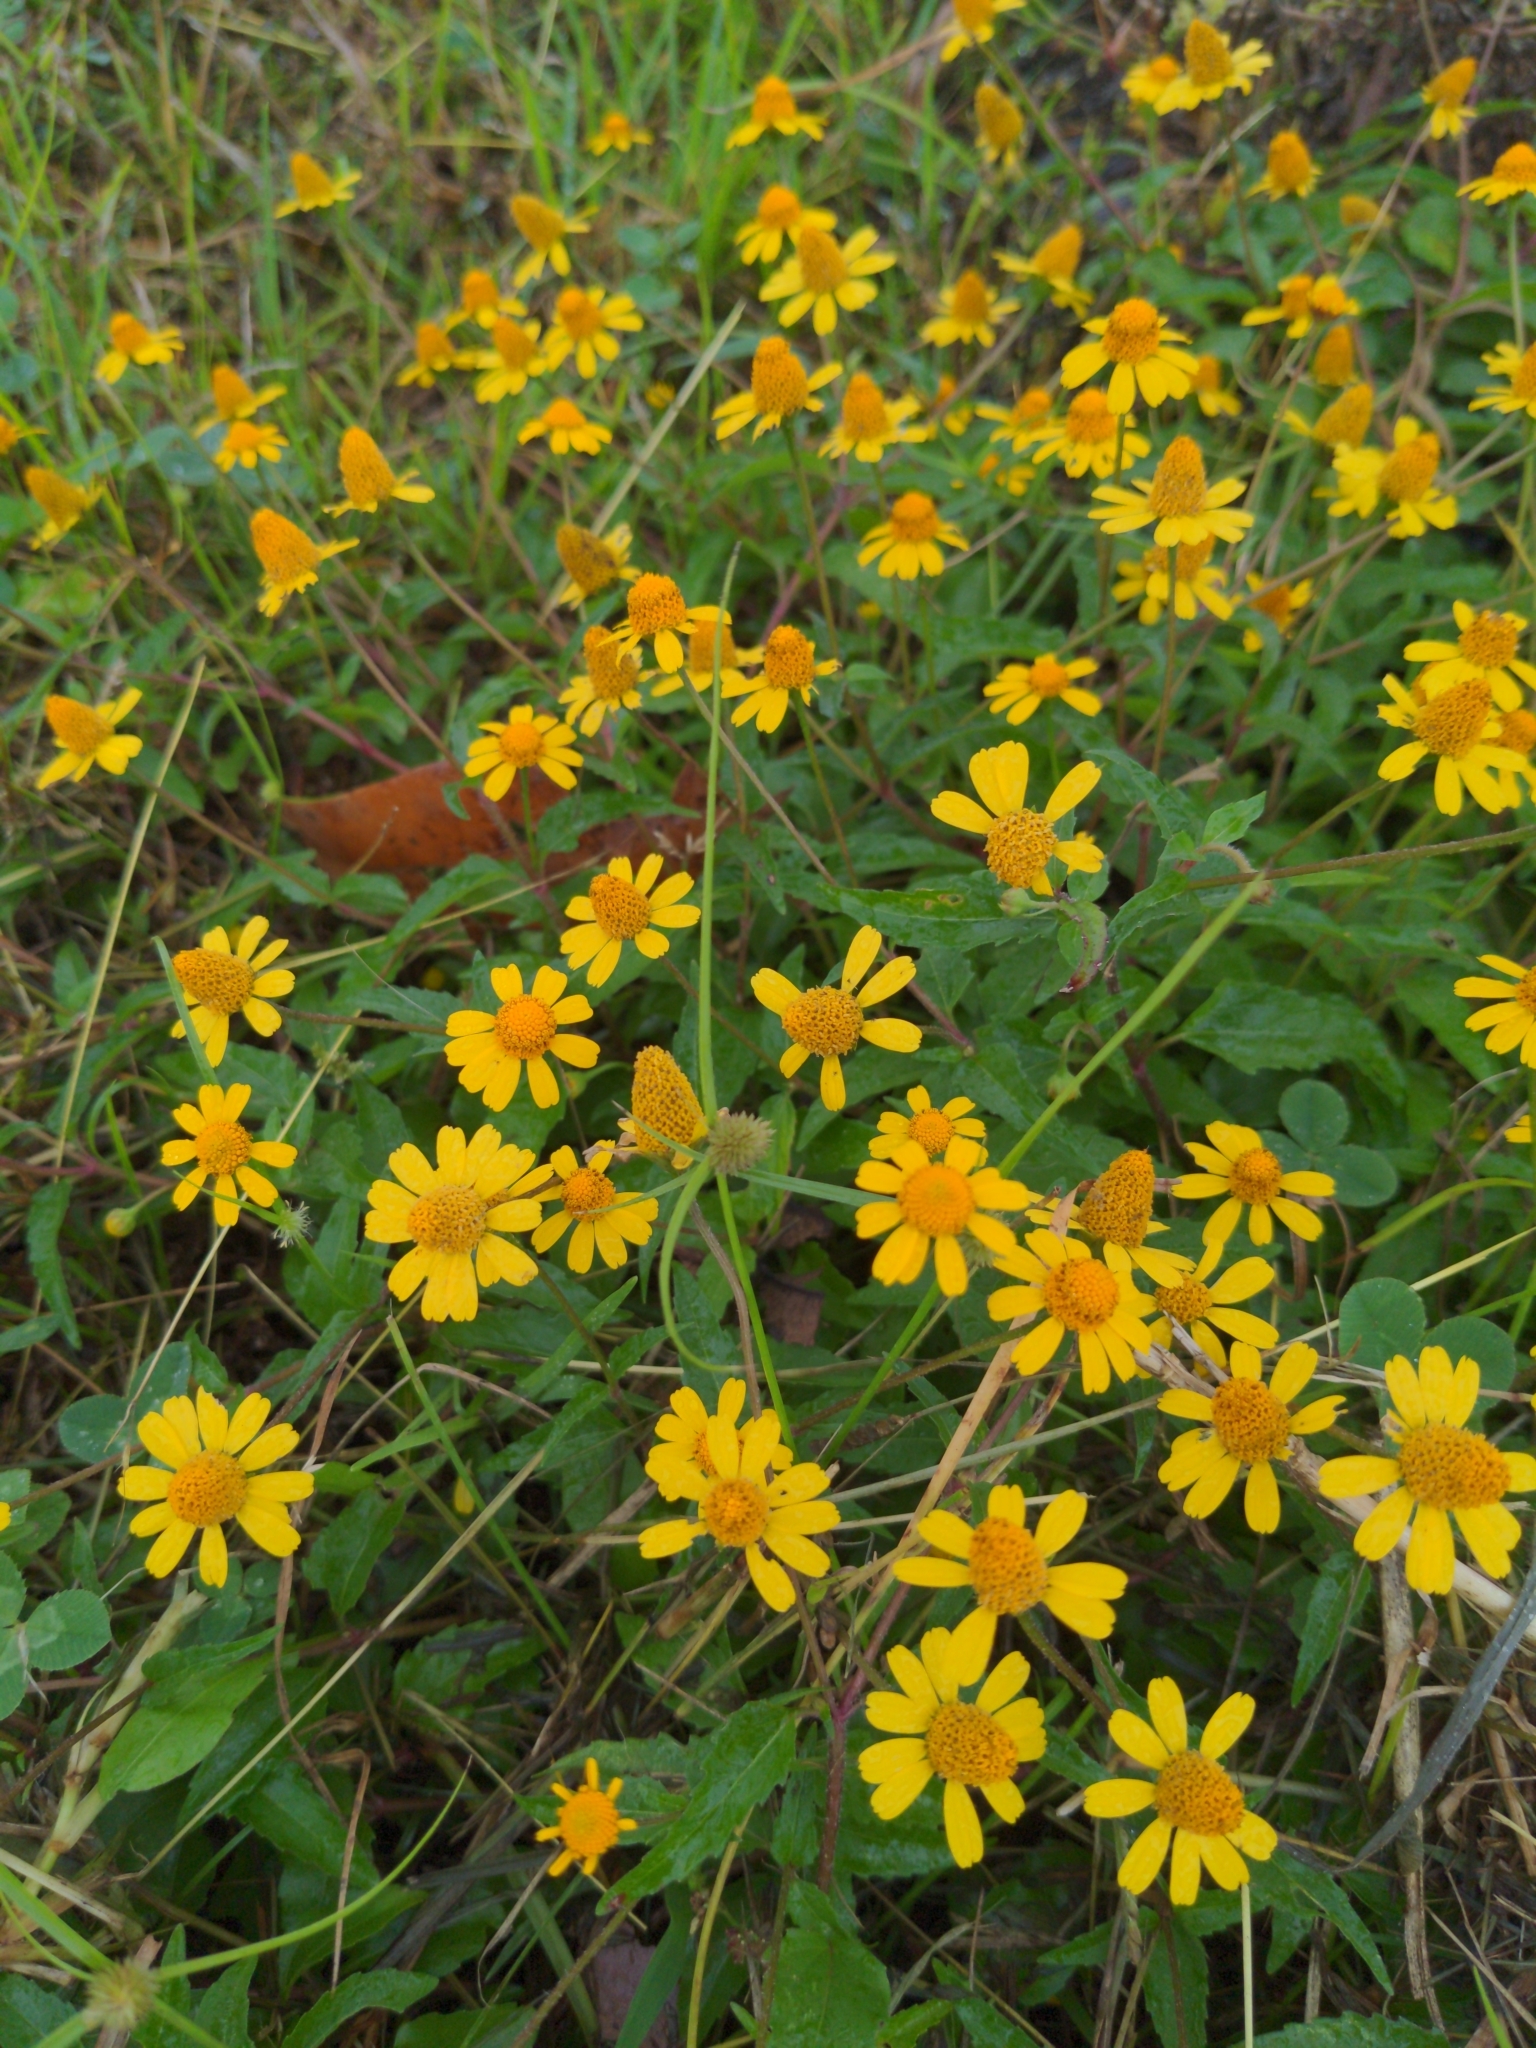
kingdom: Plantae
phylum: Tracheophyta
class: Magnoliopsida
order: Asterales
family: Asteraceae
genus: Acmella
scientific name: Acmella repens
